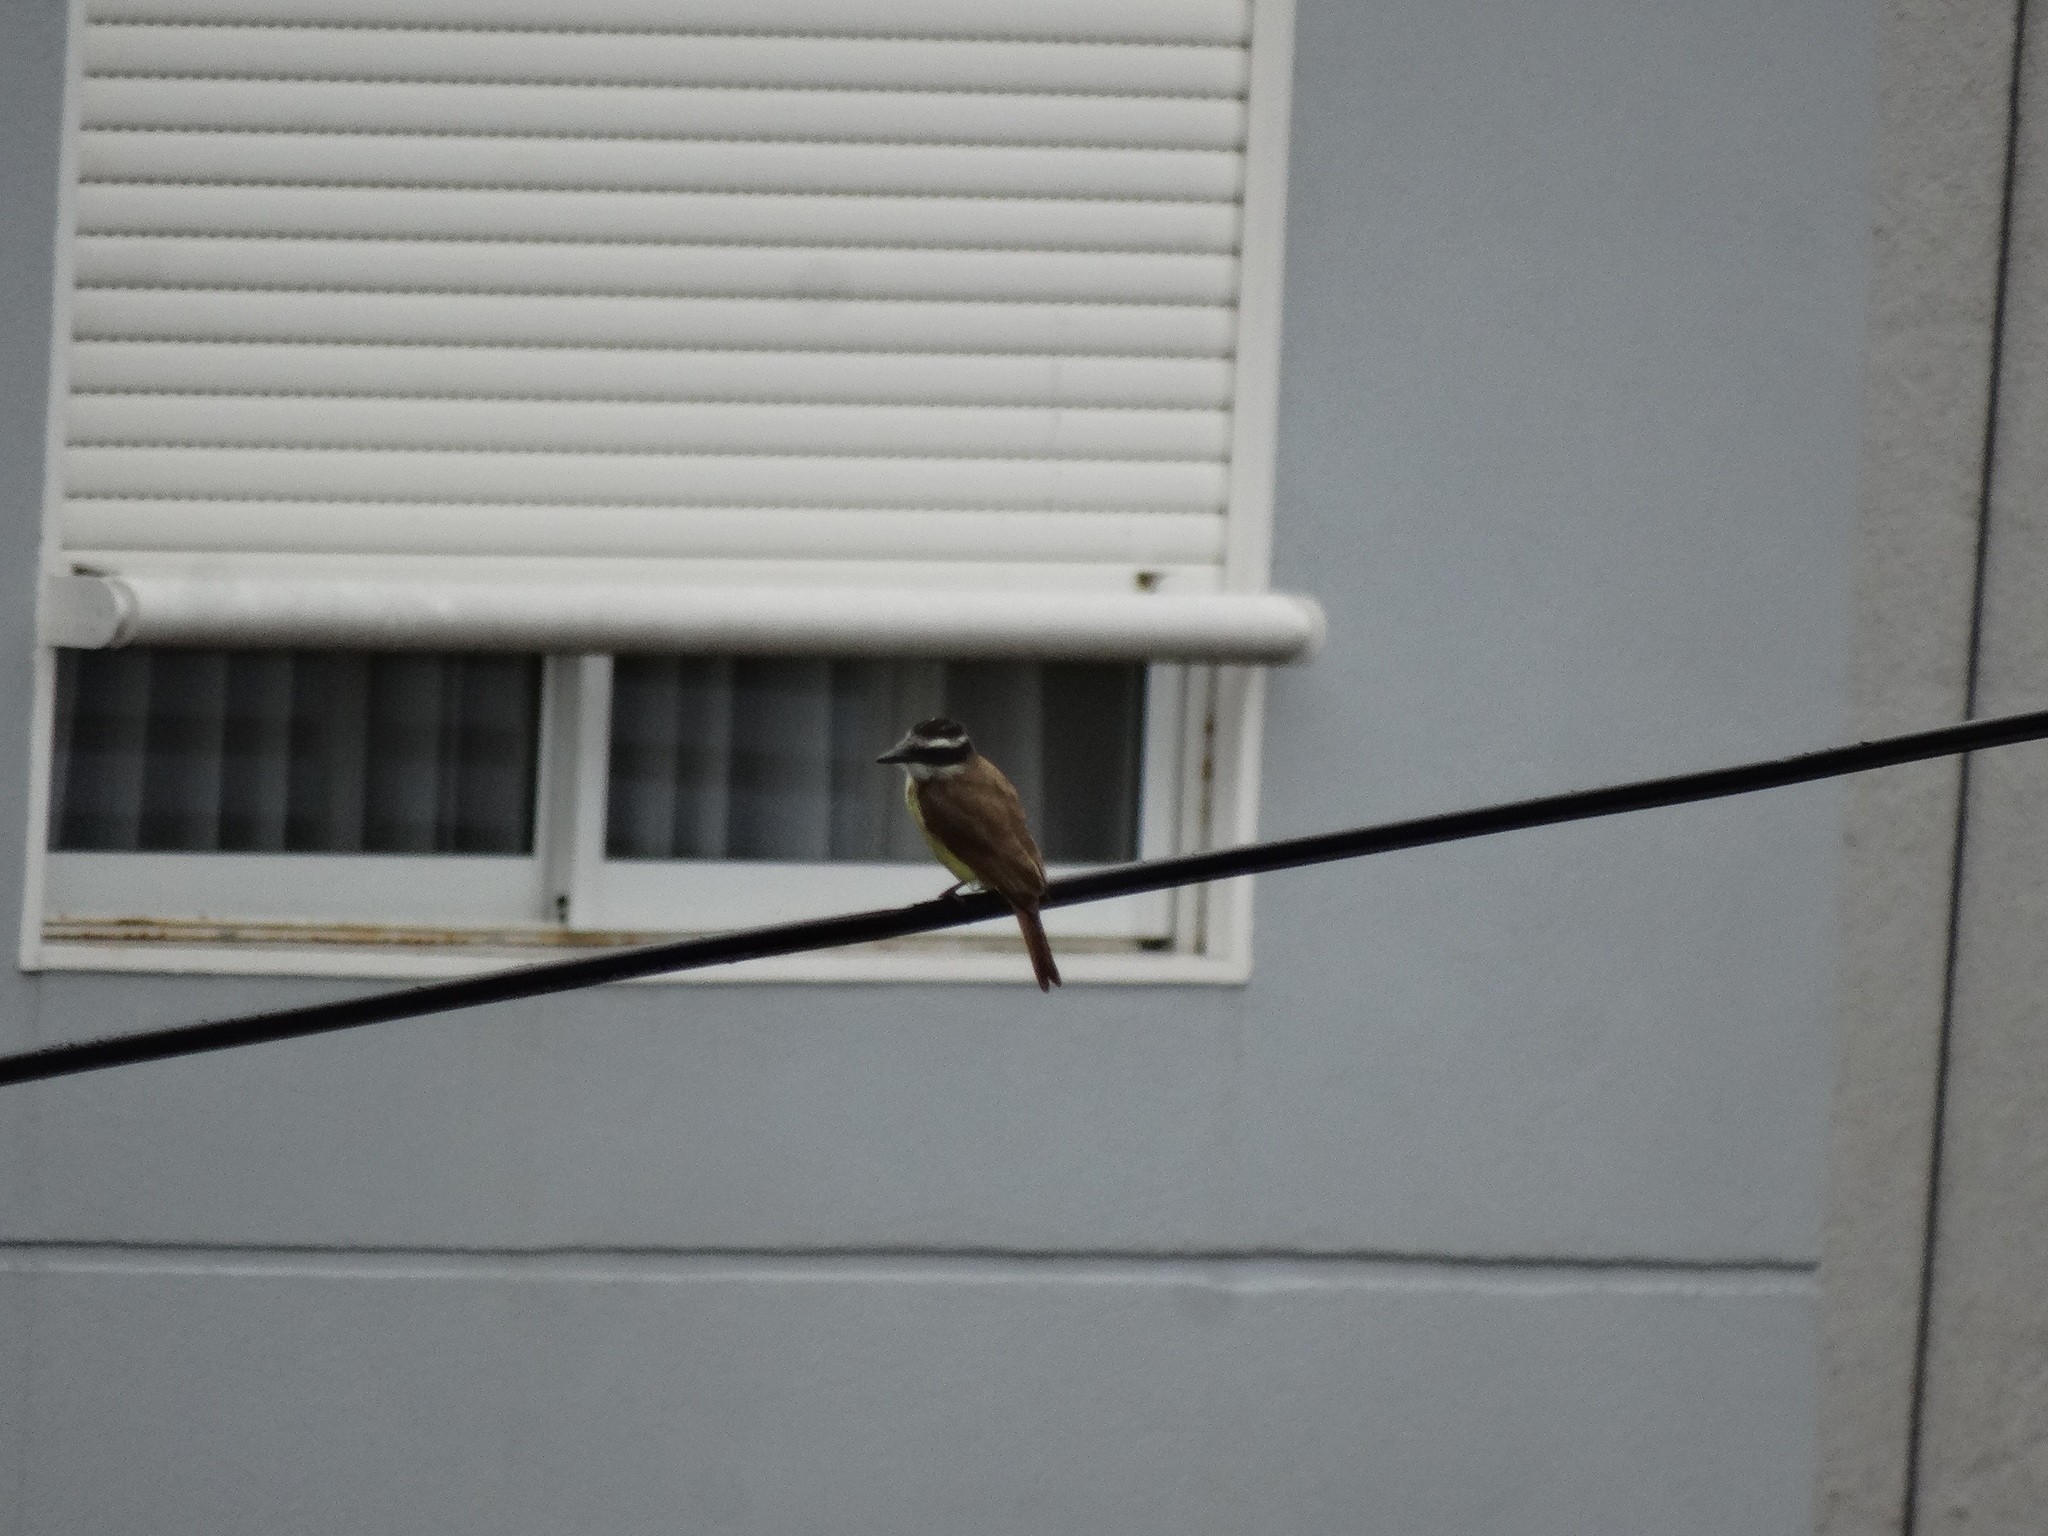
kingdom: Animalia
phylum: Chordata
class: Aves
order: Passeriformes
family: Tyrannidae
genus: Pitangus
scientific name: Pitangus sulphuratus
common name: Great kiskadee
